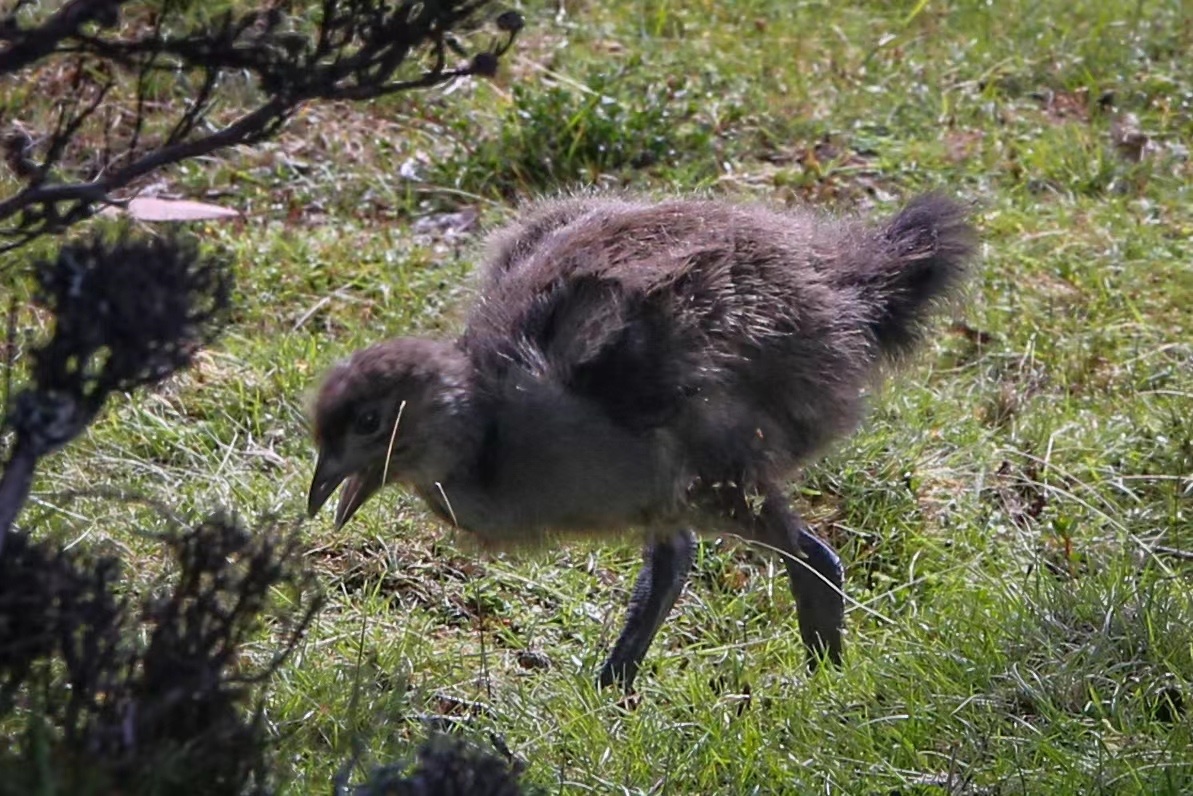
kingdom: Animalia
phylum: Chordata
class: Aves
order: Gruiformes
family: Rallidae
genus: Gallinula
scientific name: Gallinula mortierii
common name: Tasmanian nativehen
